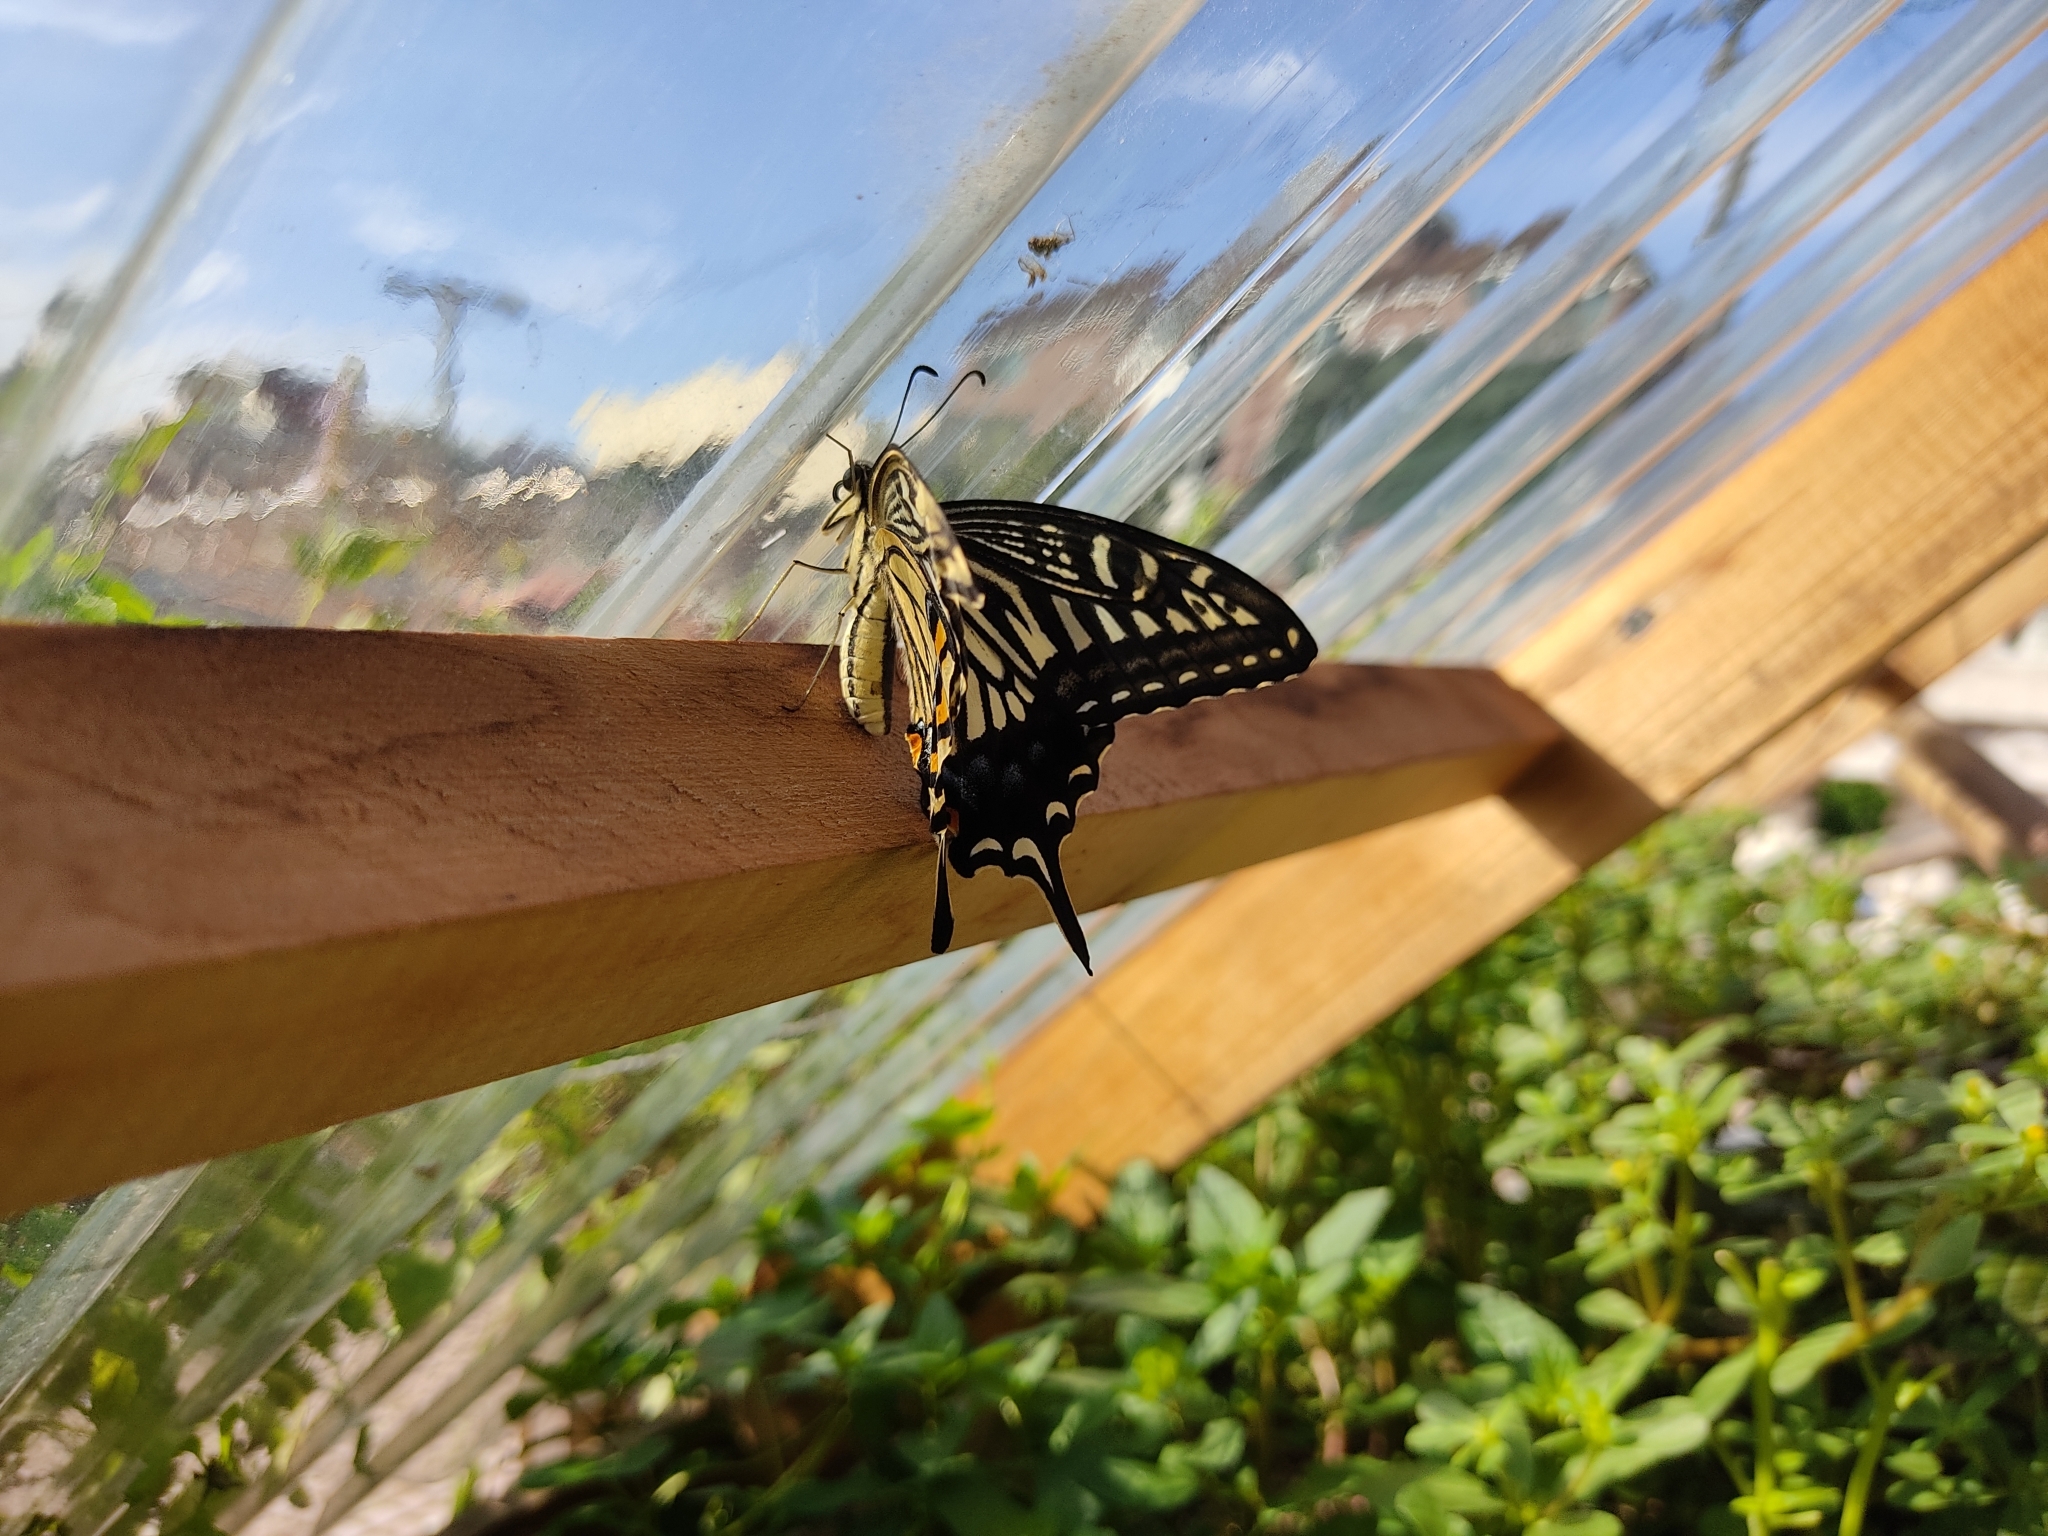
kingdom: Animalia
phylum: Arthropoda
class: Insecta
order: Lepidoptera
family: Papilionidae
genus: Papilio
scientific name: Papilio xuthus
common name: Asian swallowtail
